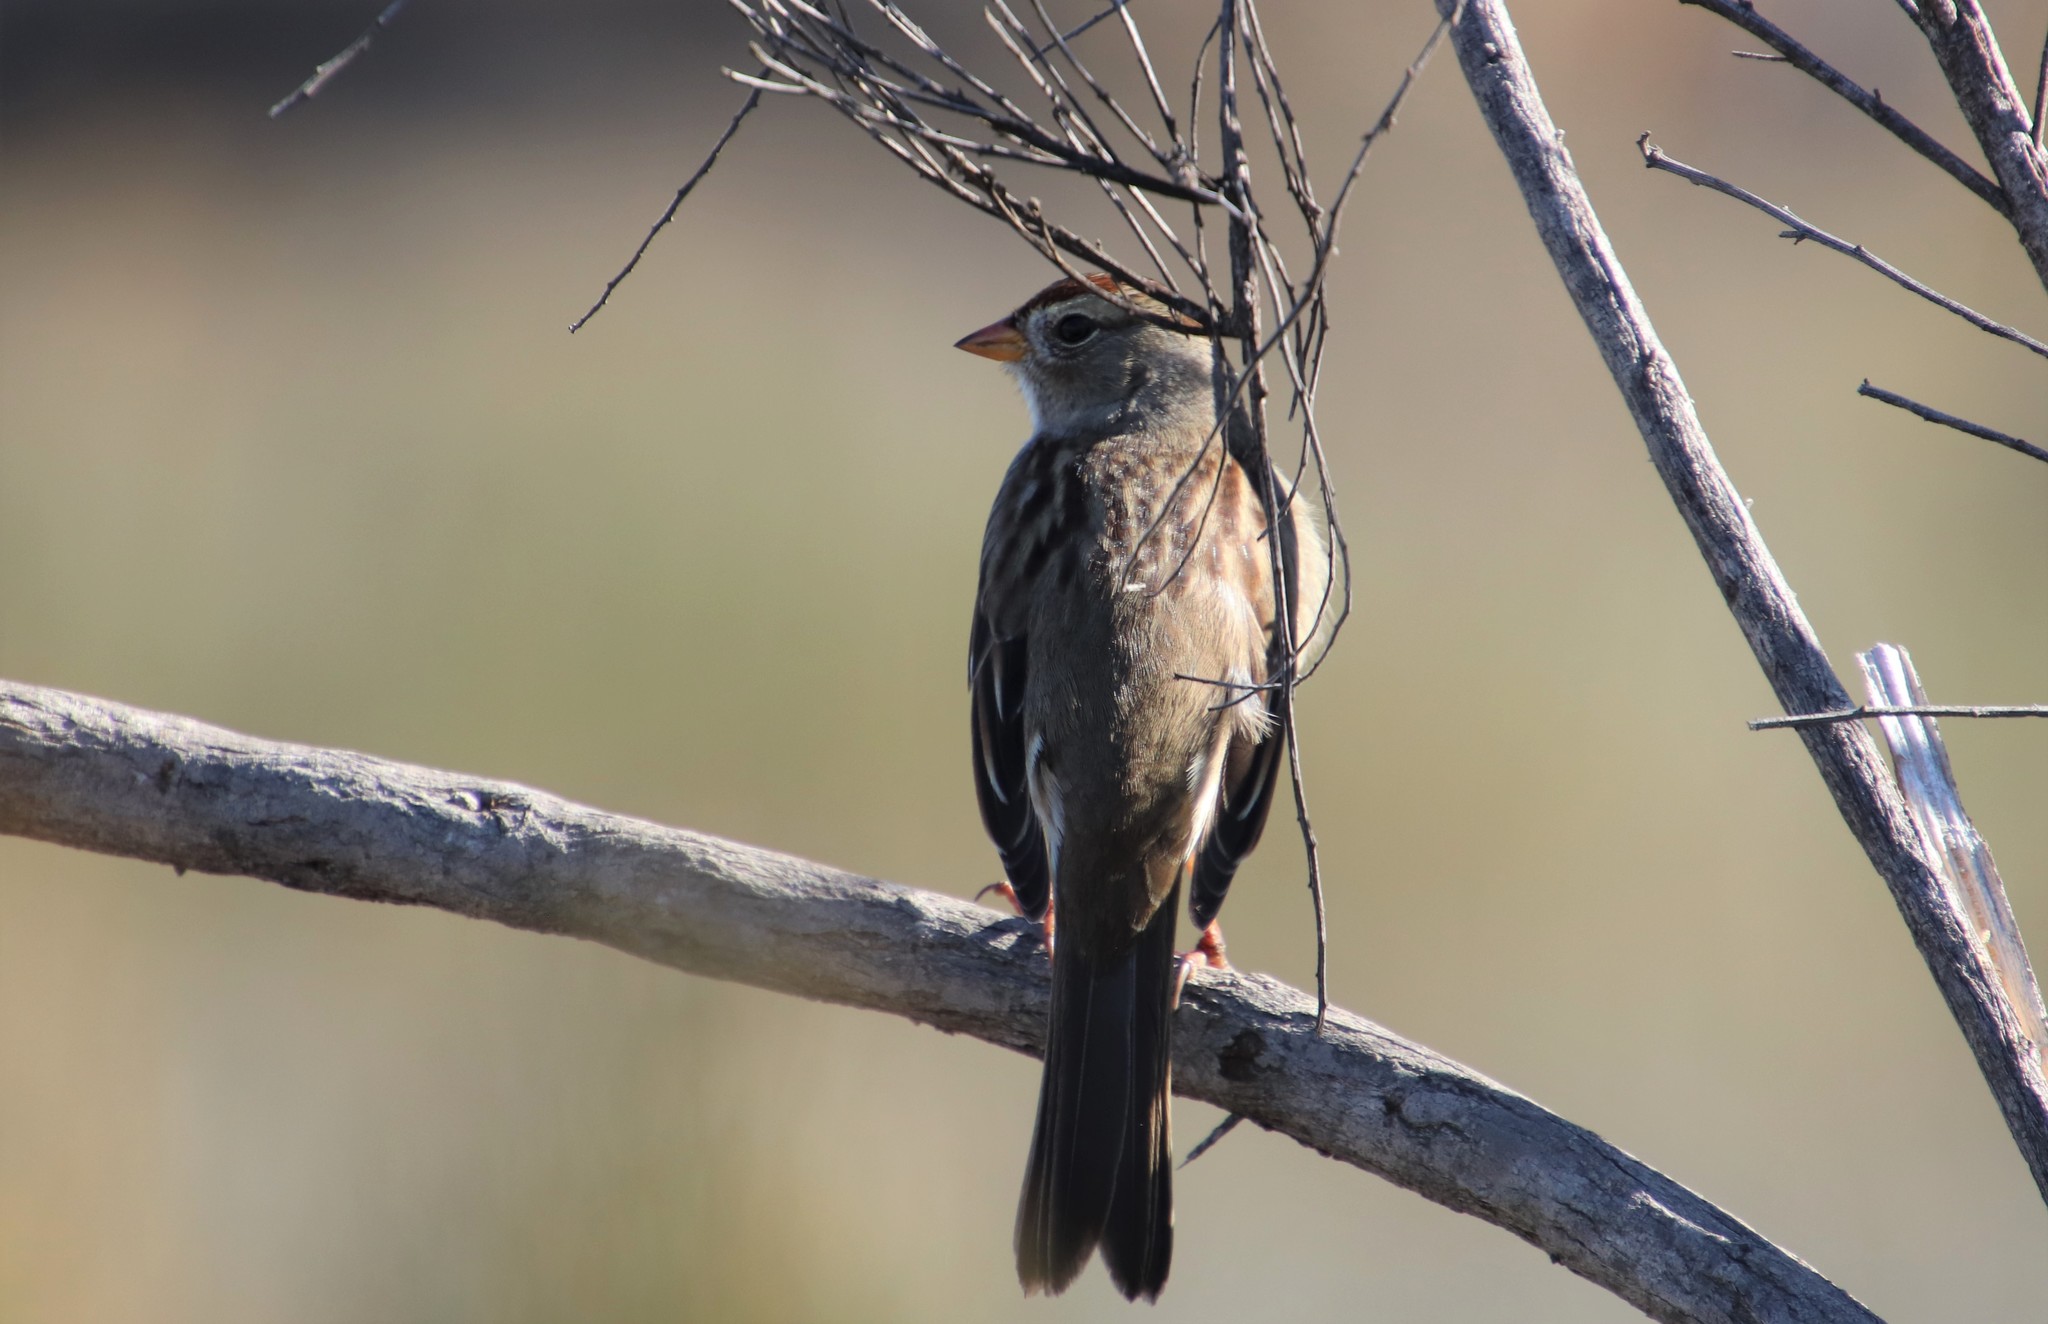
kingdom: Animalia
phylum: Chordata
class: Aves
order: Passeriformes
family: Passerellidae
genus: Zonotrichia
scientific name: Zonotrichia leucophrys
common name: White-crowned sparrow
